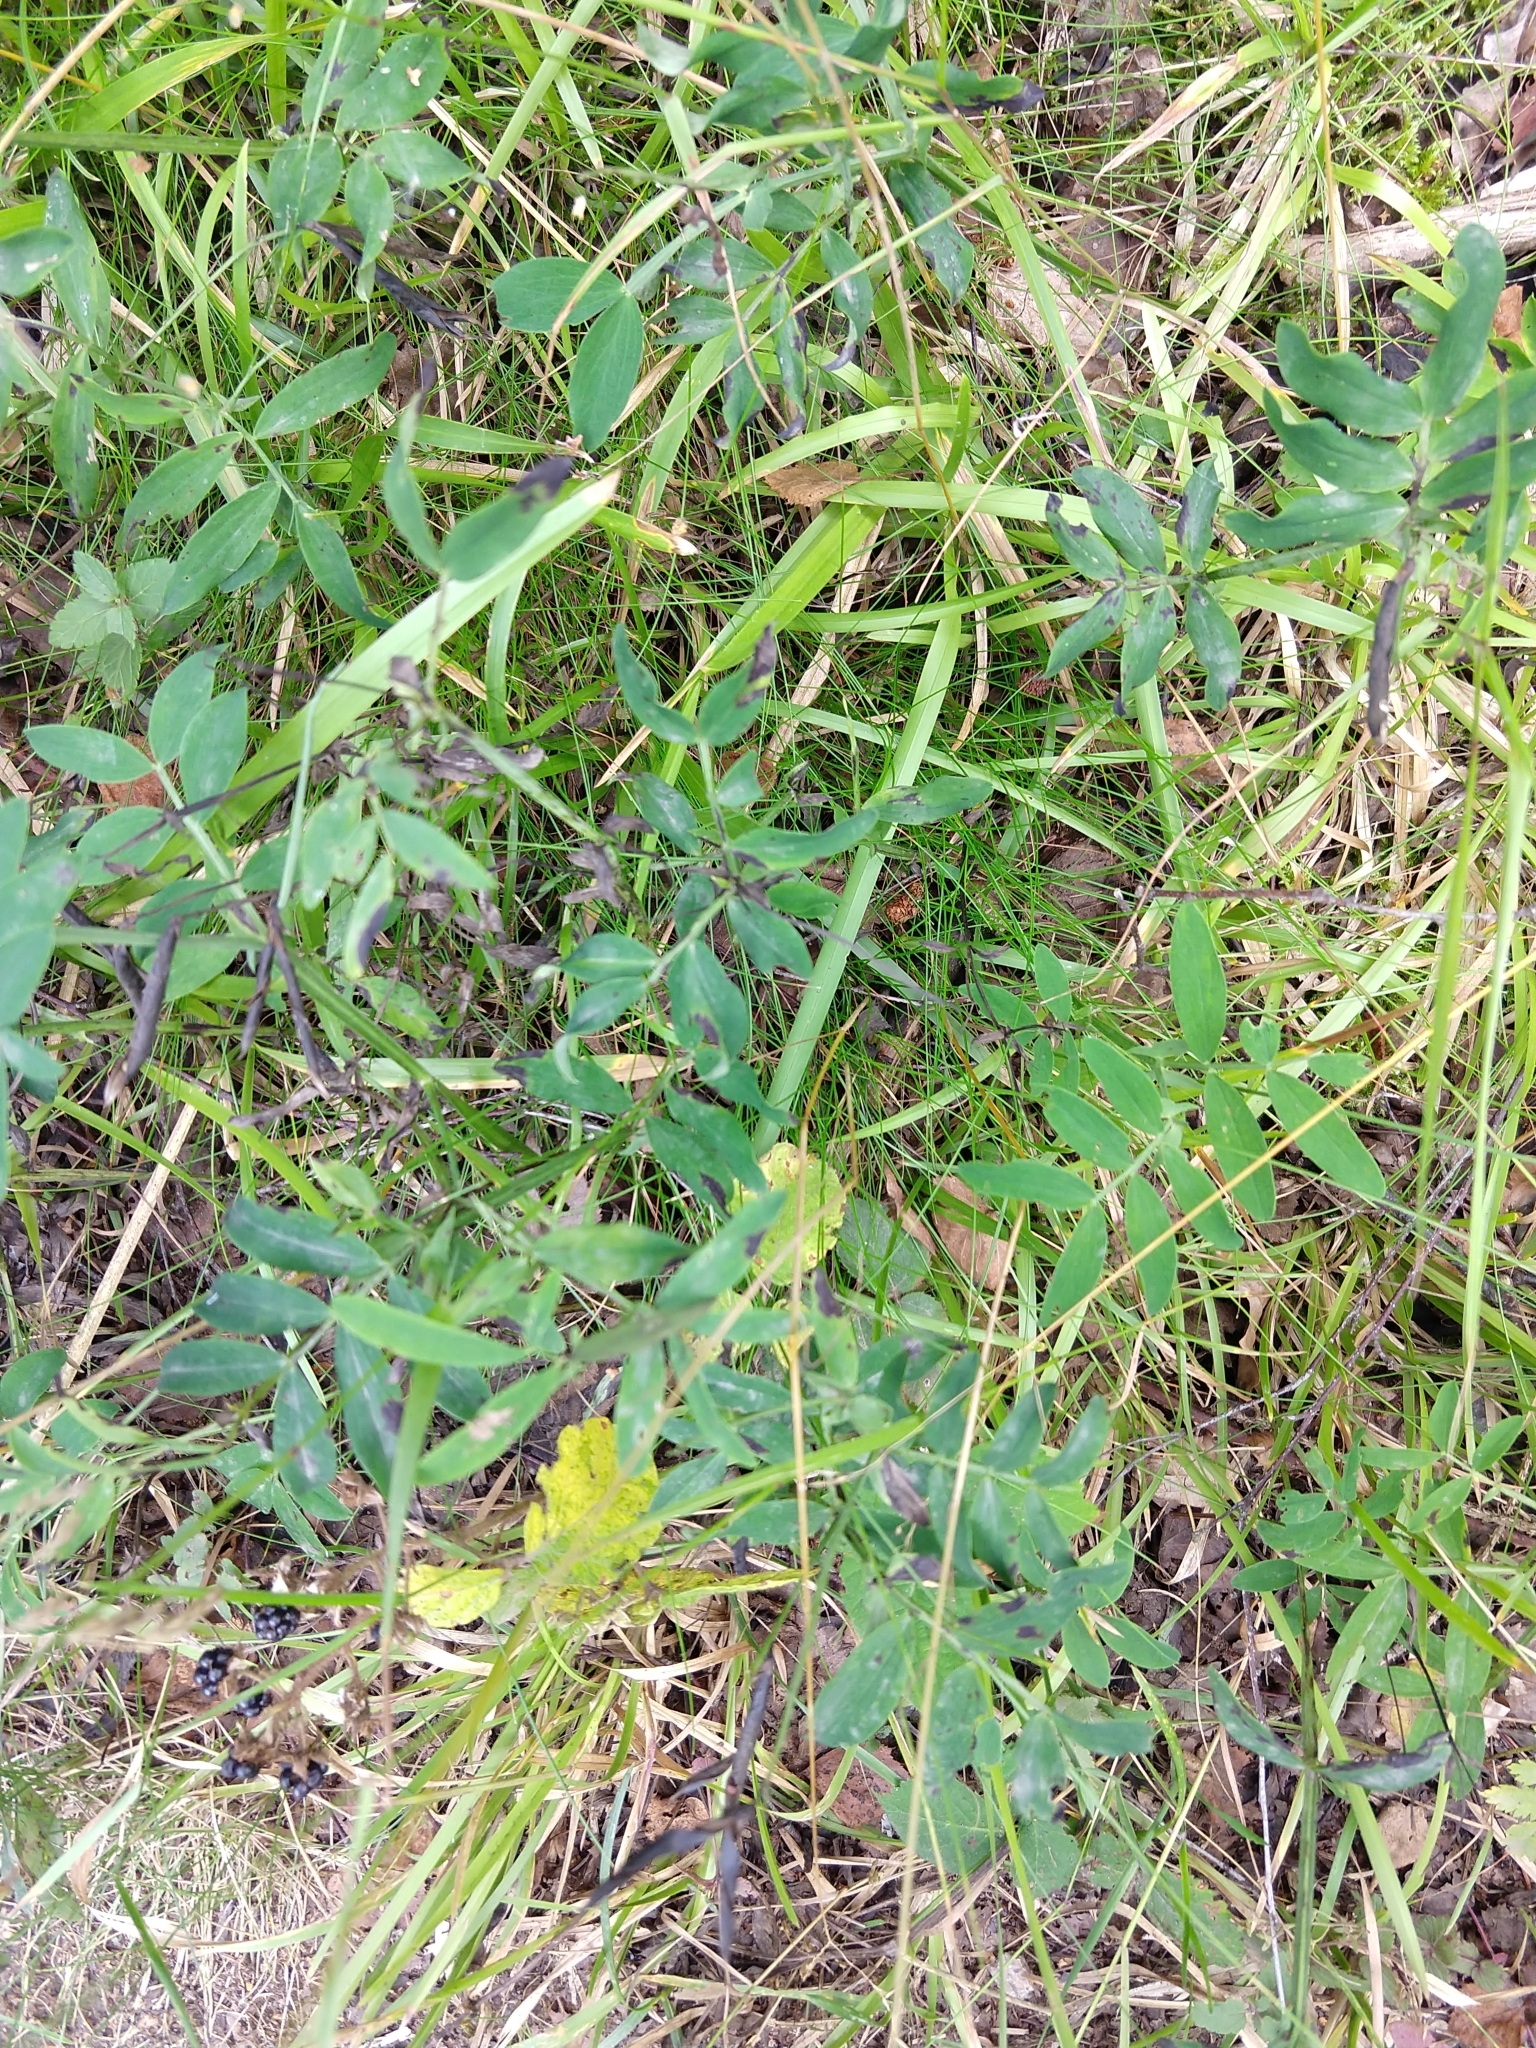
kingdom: Plantae
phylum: Tracheophyta
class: Magnoliopsida
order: Fabales
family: Fabaceae
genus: Lathyrus
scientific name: Lathyrus linifolius
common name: Bitter-vetch
